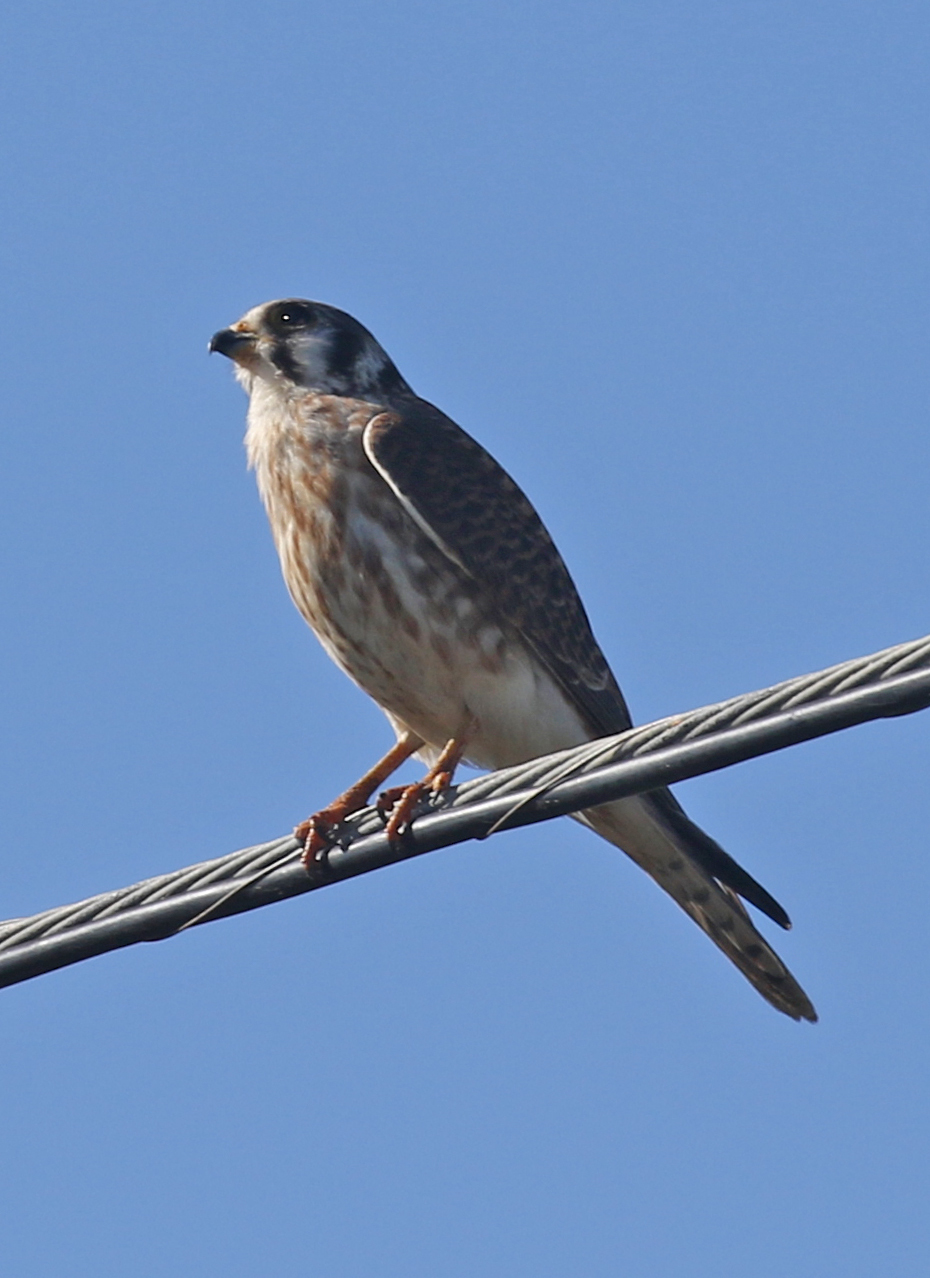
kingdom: Animalia
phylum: Chordata
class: Aves
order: Falconiformes
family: Falconidae
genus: Falco
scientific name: Falco sparverius
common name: American kestrel
